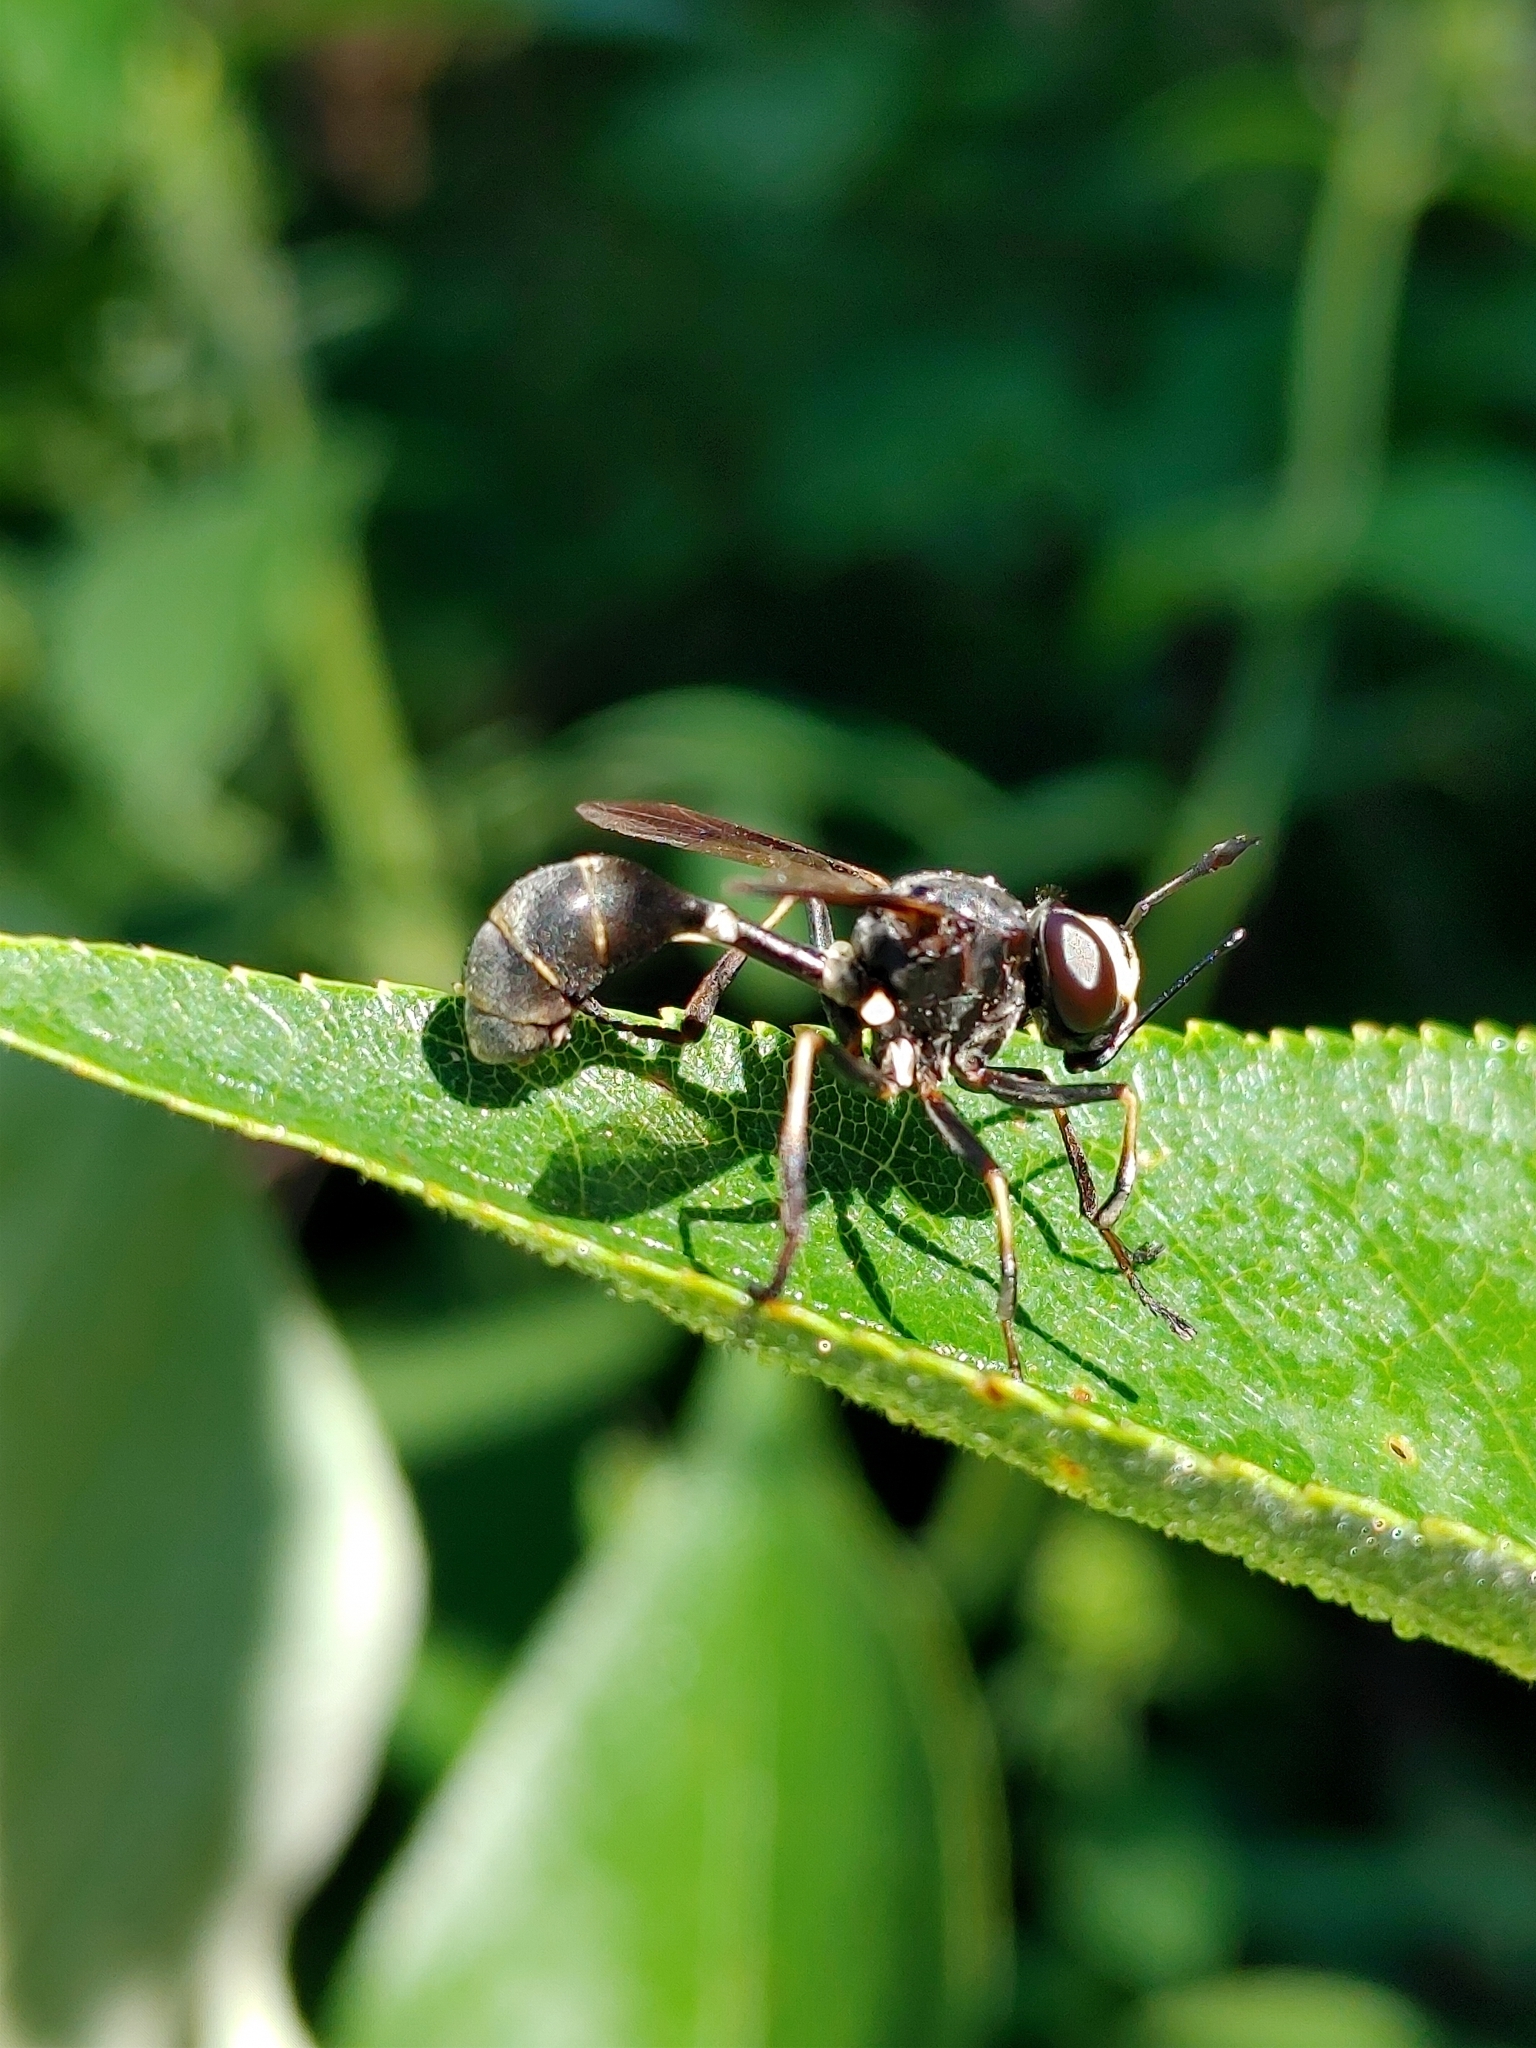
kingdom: Animalia
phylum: Arthropoda
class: Insecta
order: Diptera
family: Conopidae
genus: Physocephala
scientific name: Physocephala tibialis
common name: Common eastern physocephala
